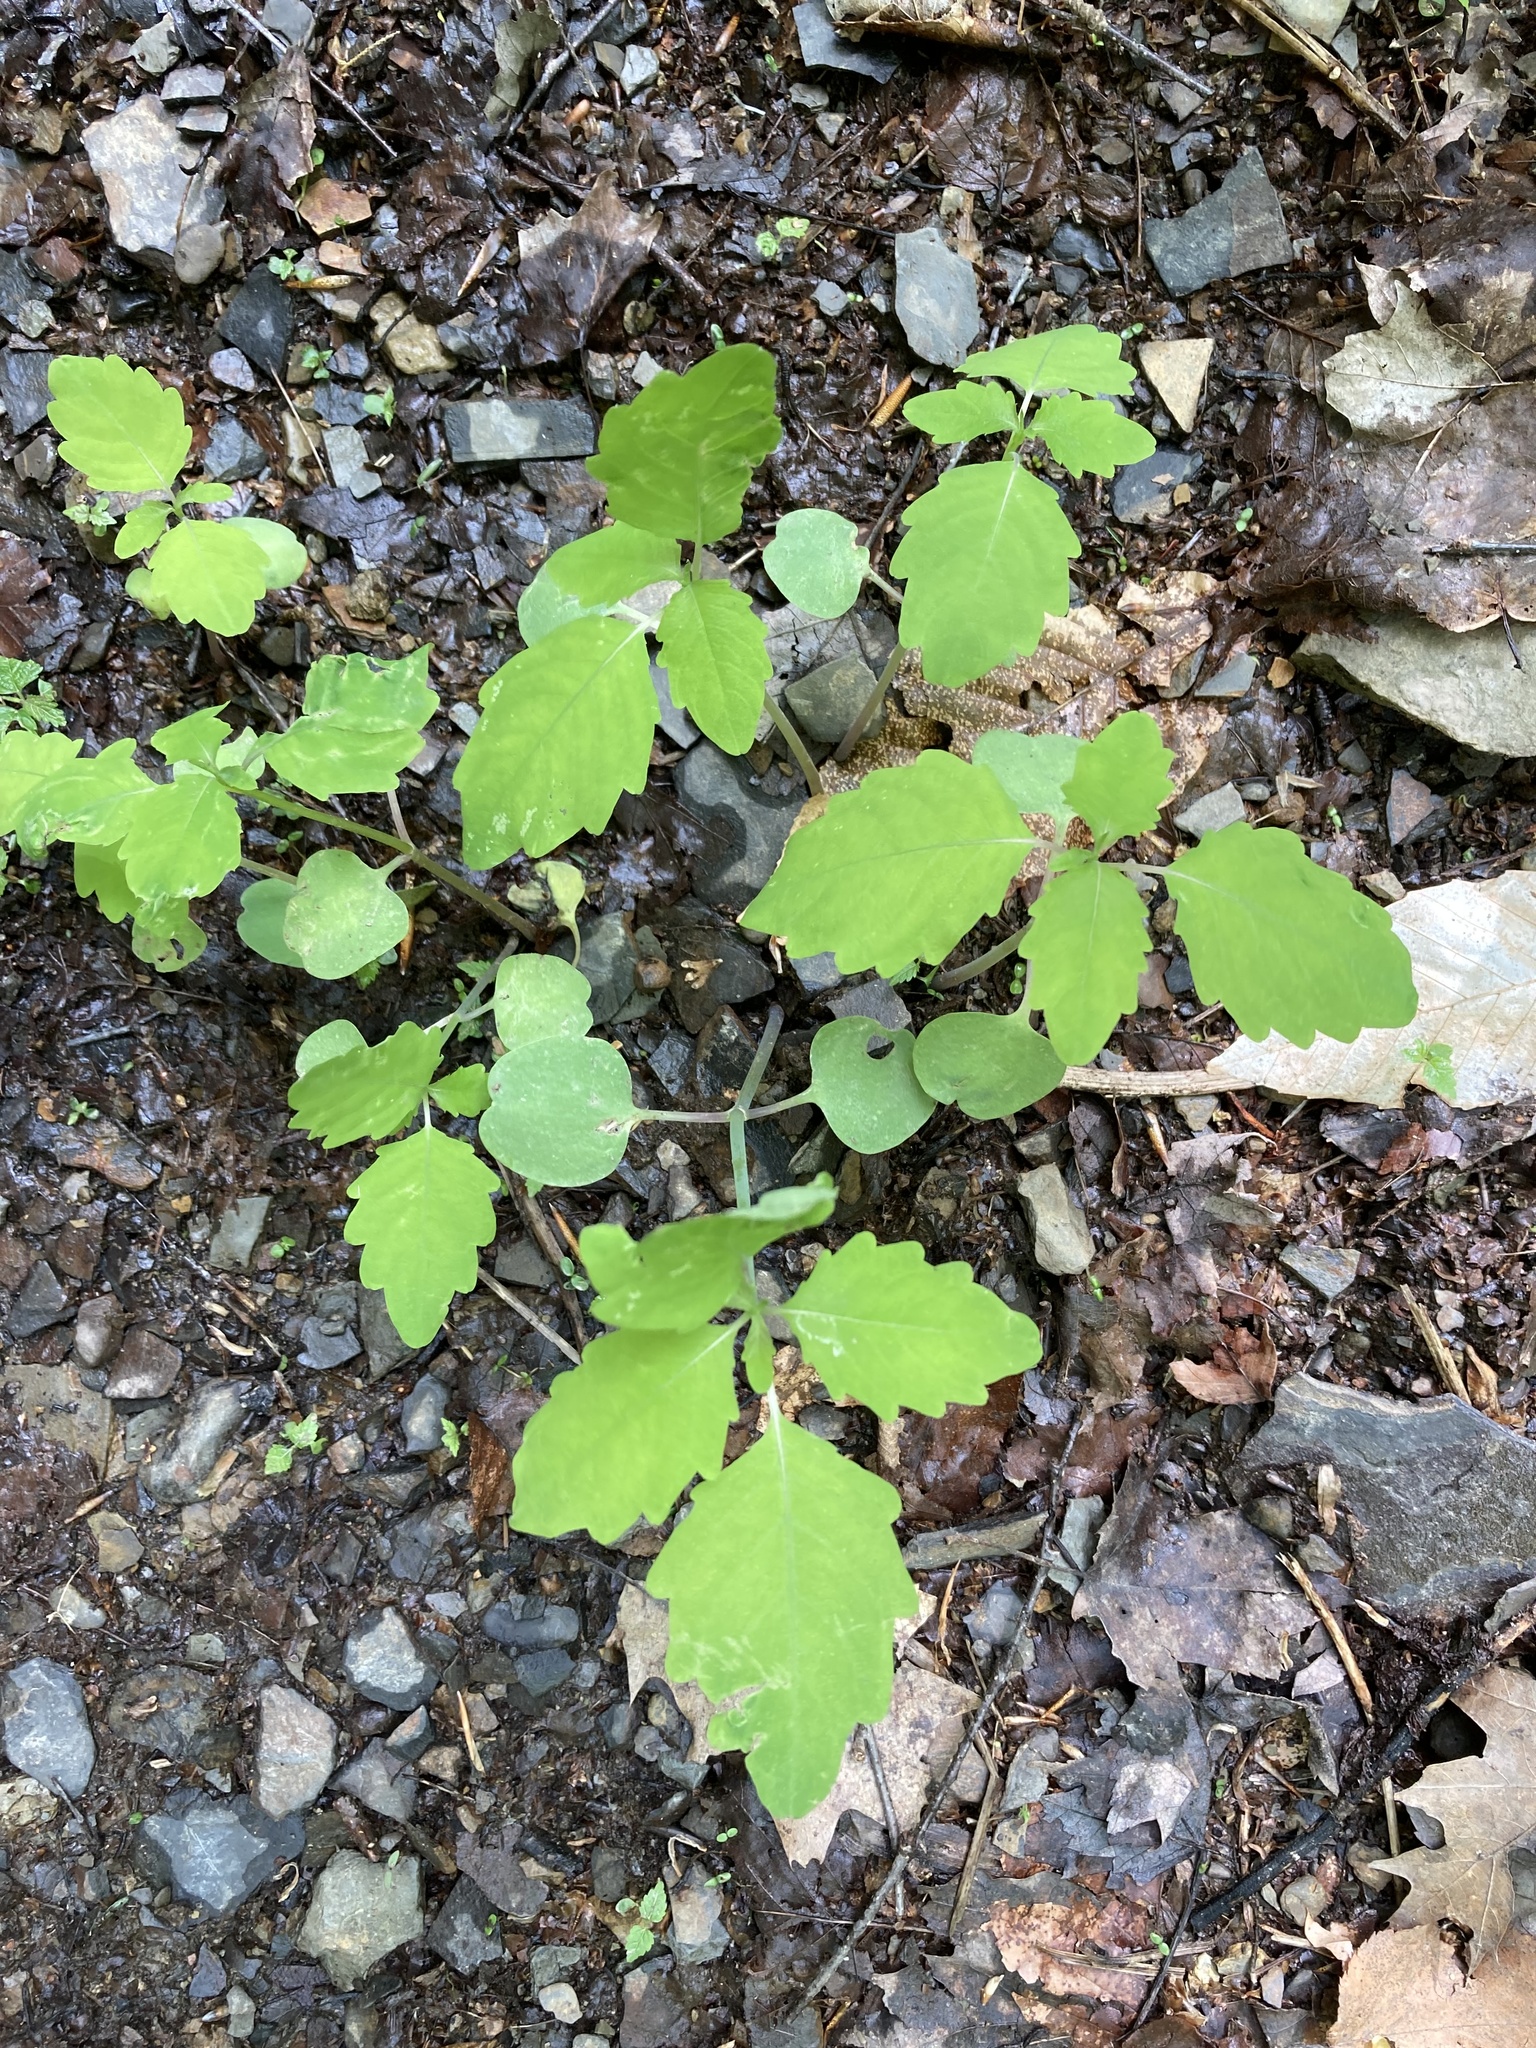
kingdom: Plantae
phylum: Tracheophyta
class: Magnoliopsida
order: Ericales
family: Balsaminaceae
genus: Impatiens
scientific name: Impatiens
